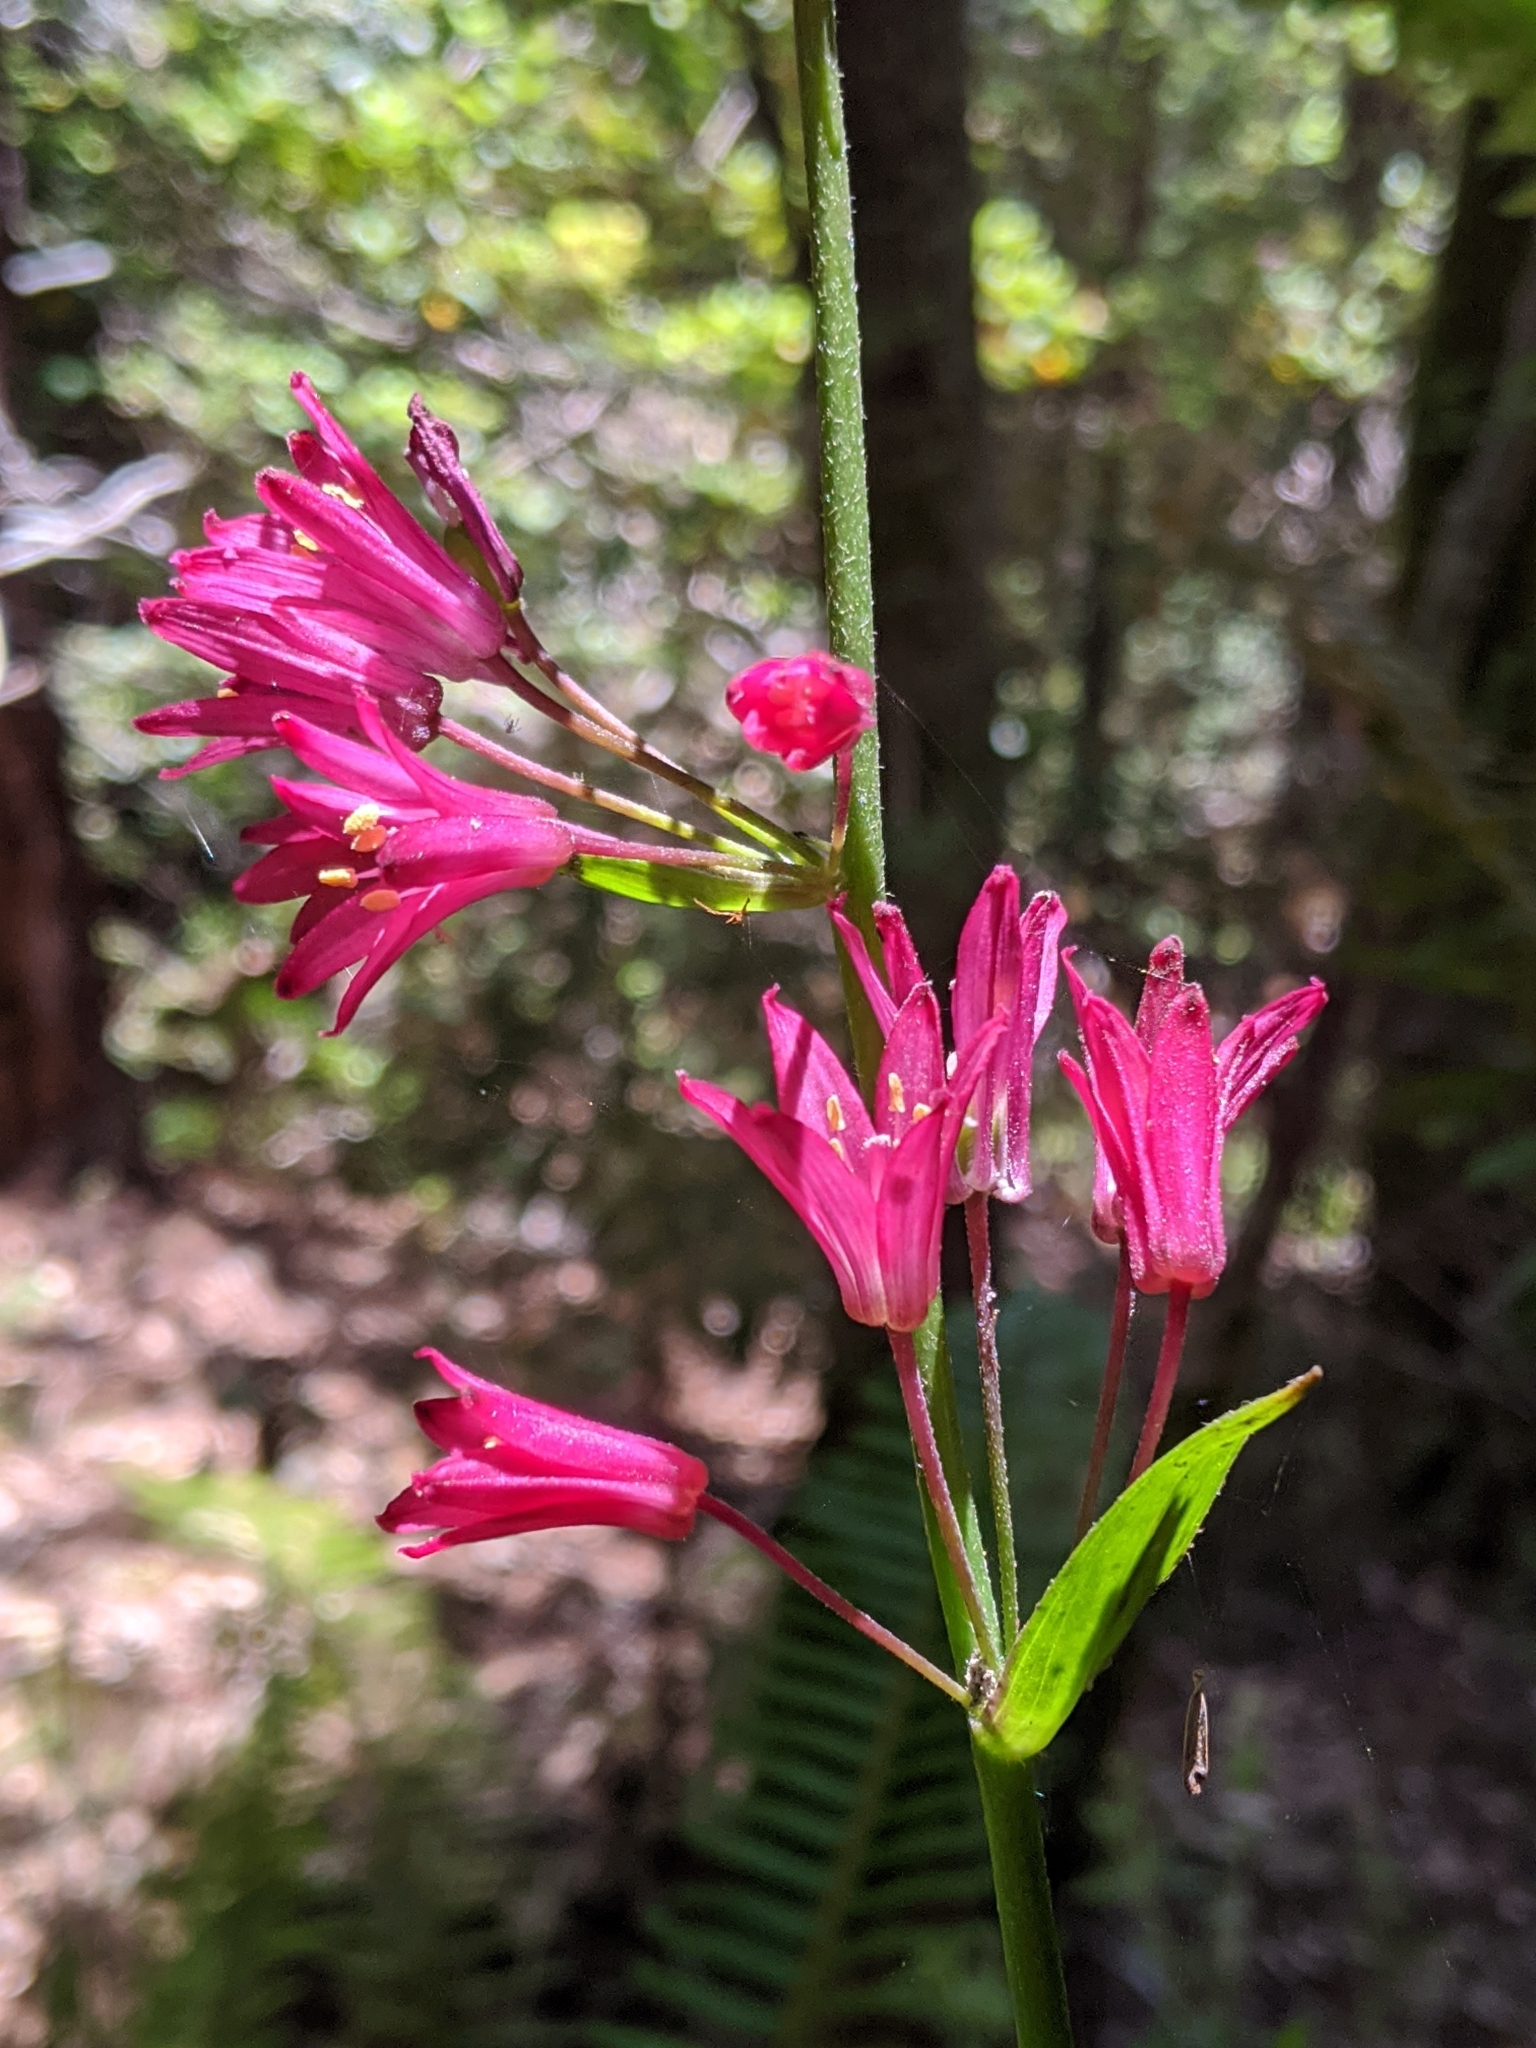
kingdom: Plantae
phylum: Tracheophyta
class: Liliopsida
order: Liliales
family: Liliaceae
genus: Clintonia
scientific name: Clintonia andrewsiana
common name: Red clintonia
